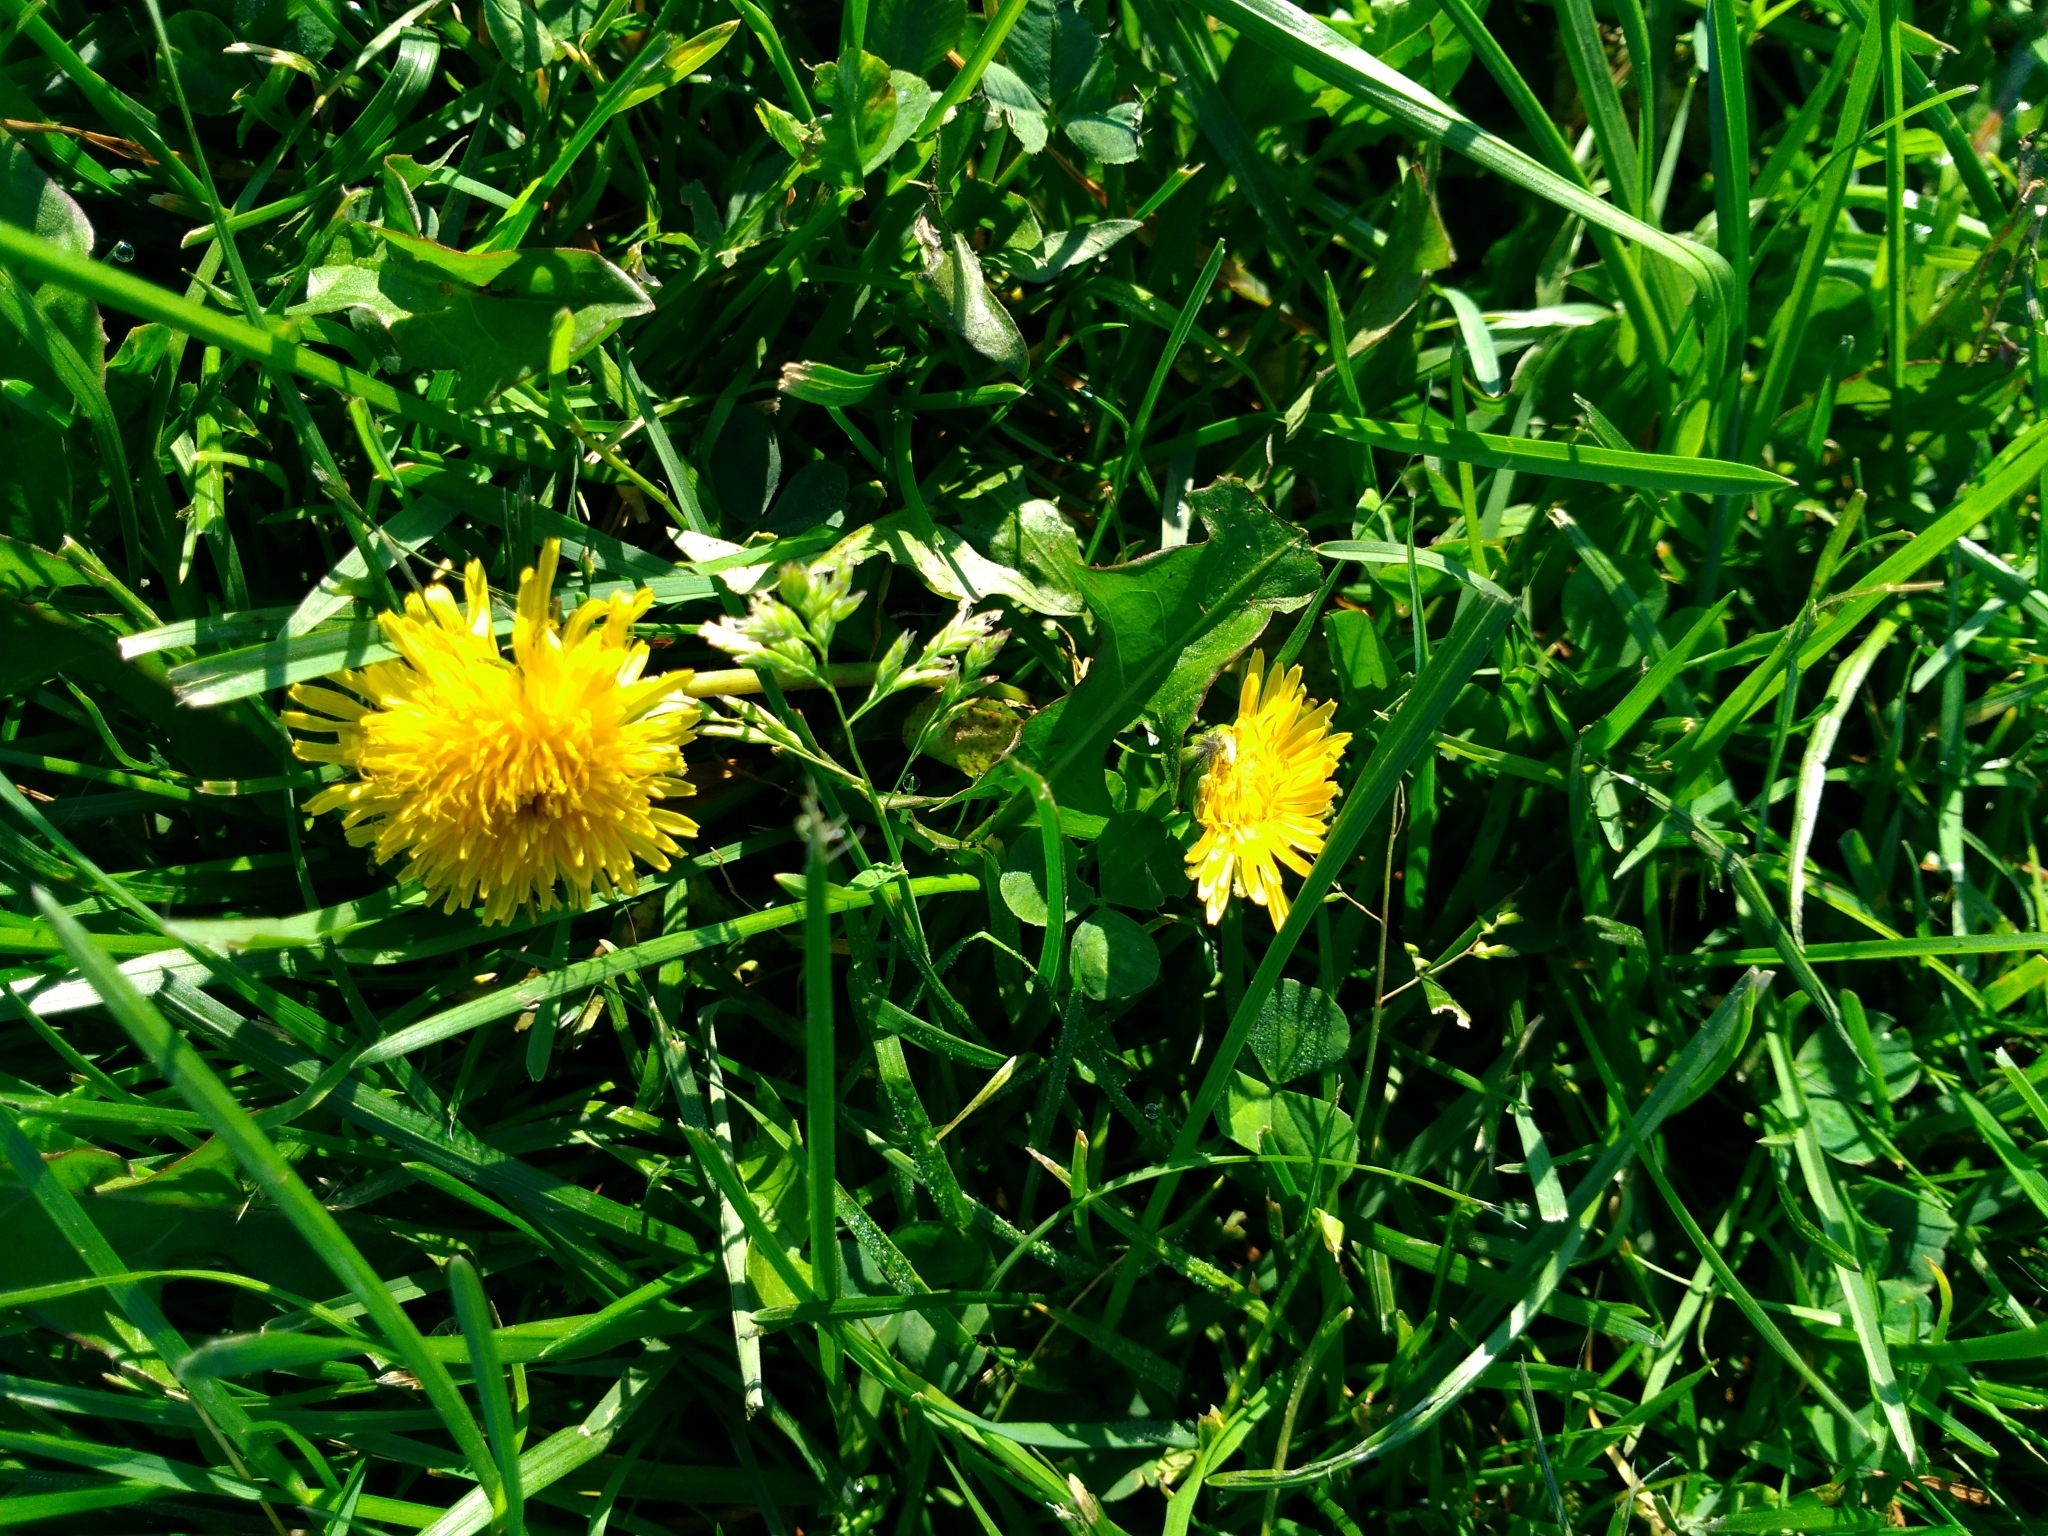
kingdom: Plantae
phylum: Tracheophyta
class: Magnoliopsida
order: Asterales
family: Asteraceae
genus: Taraxacum
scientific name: Taraxacum officinale
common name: Common dandelion
